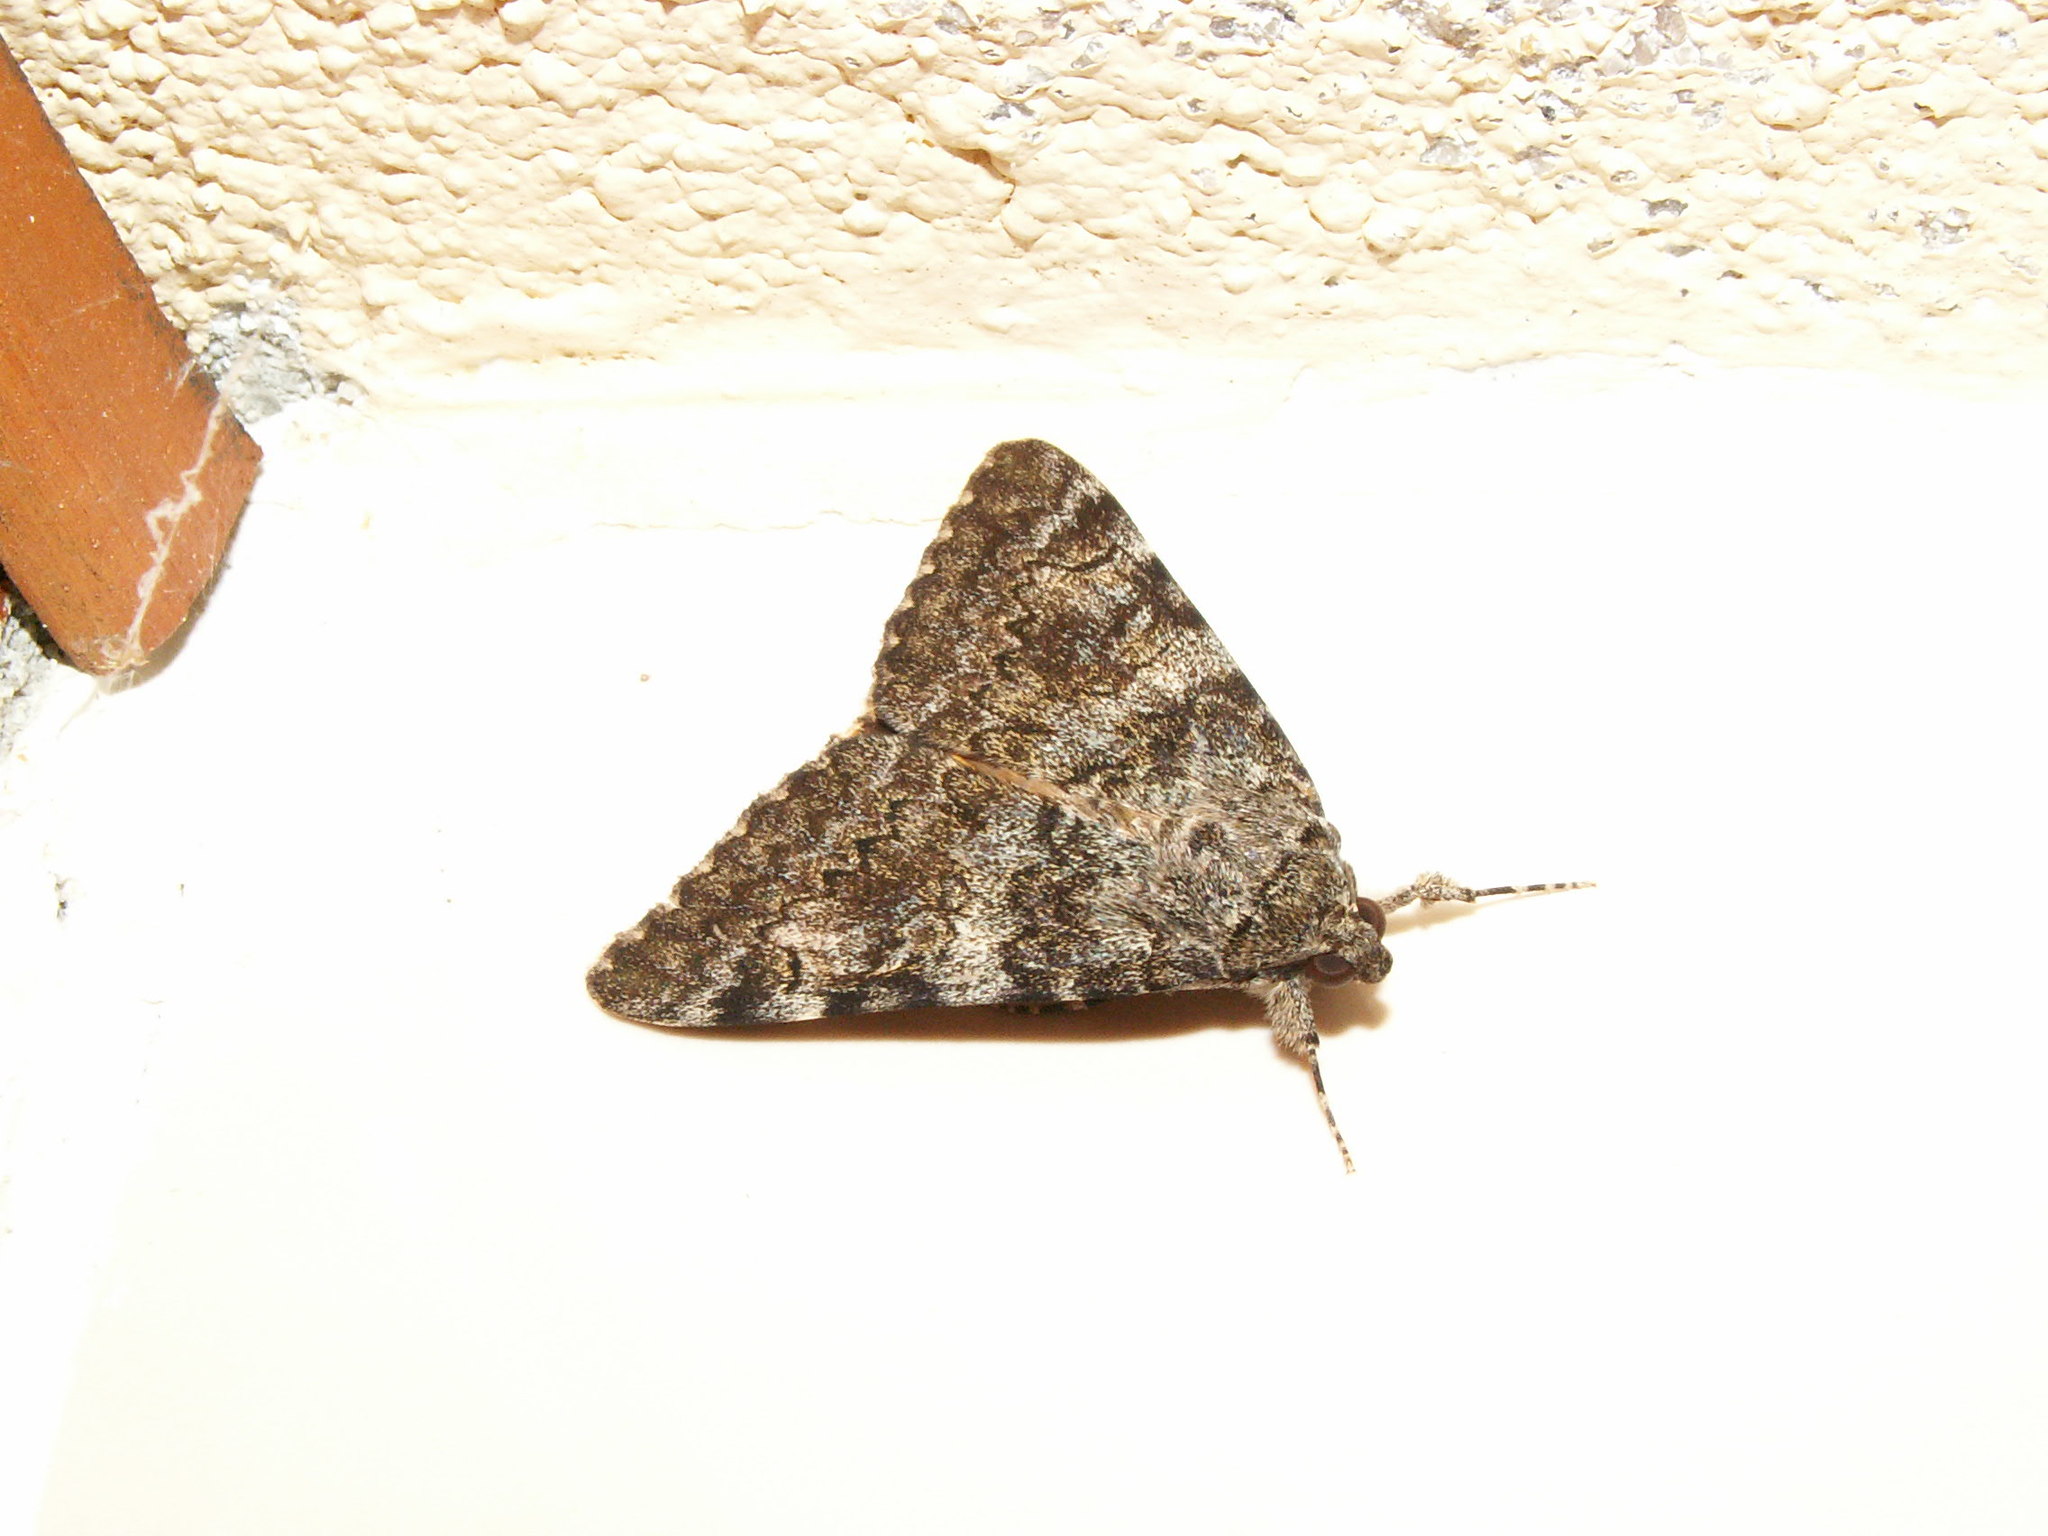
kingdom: Animalia
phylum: Arthropoda
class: Insecta
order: Lepidoptera
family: Erebidae
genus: Catocala
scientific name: Catocala nymphaea
